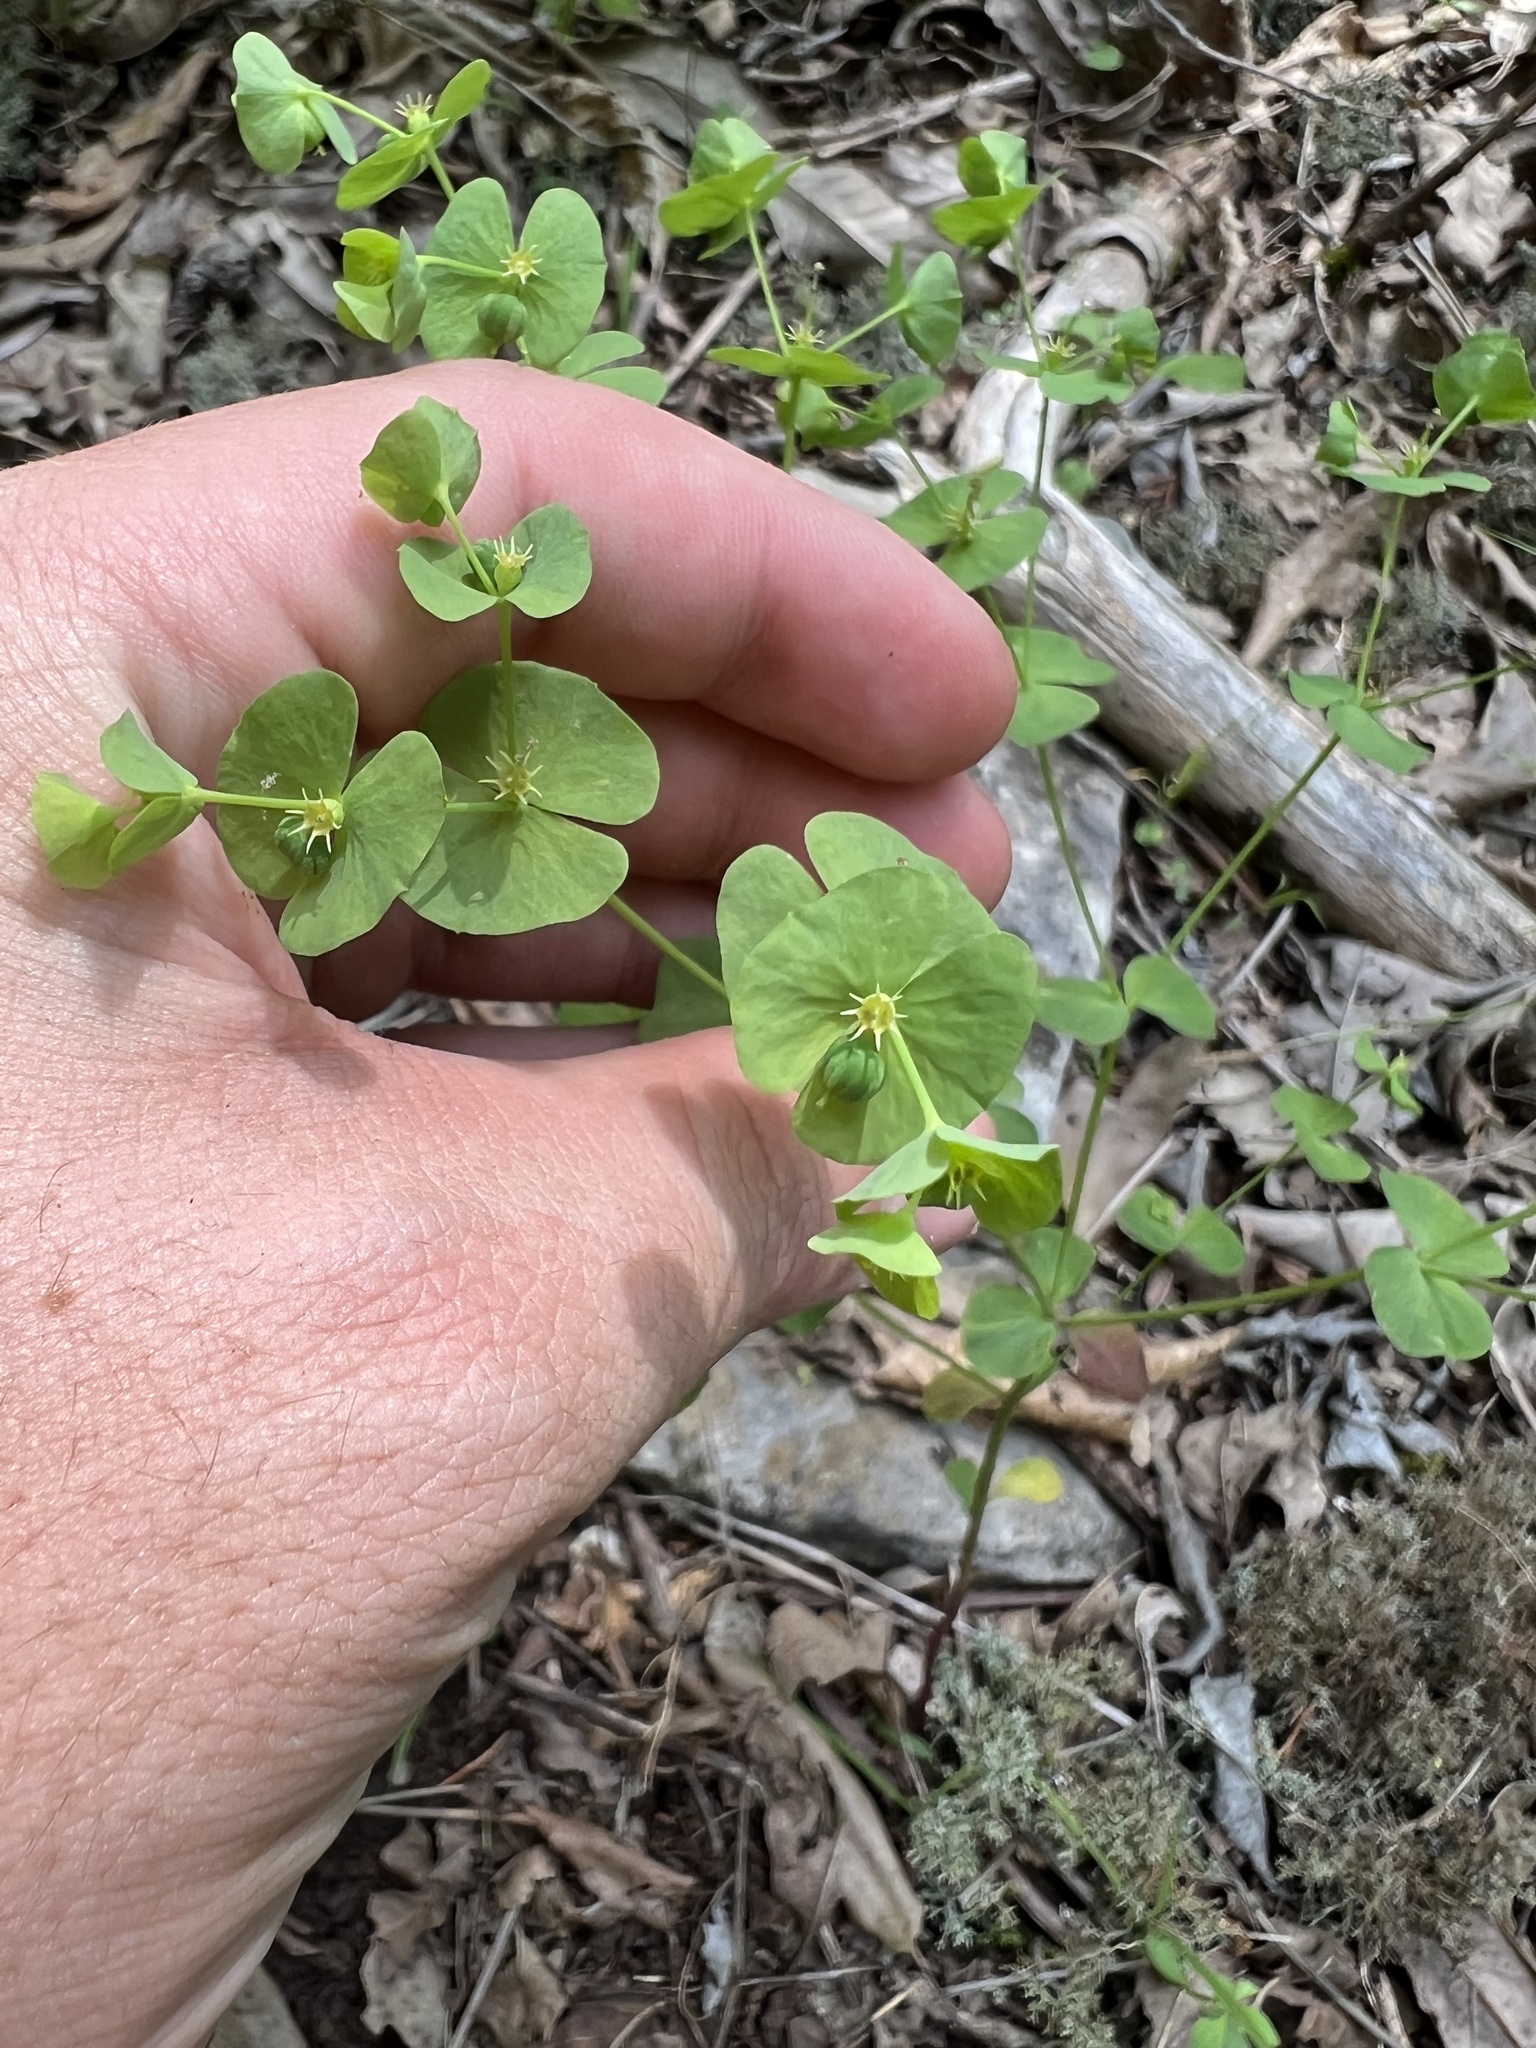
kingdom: Plantae
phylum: Tracheophyta
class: Magnoliopsida
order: Malpighiales
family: Euphorbiaceae
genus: Euphorbia
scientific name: Euphorbia commutata
